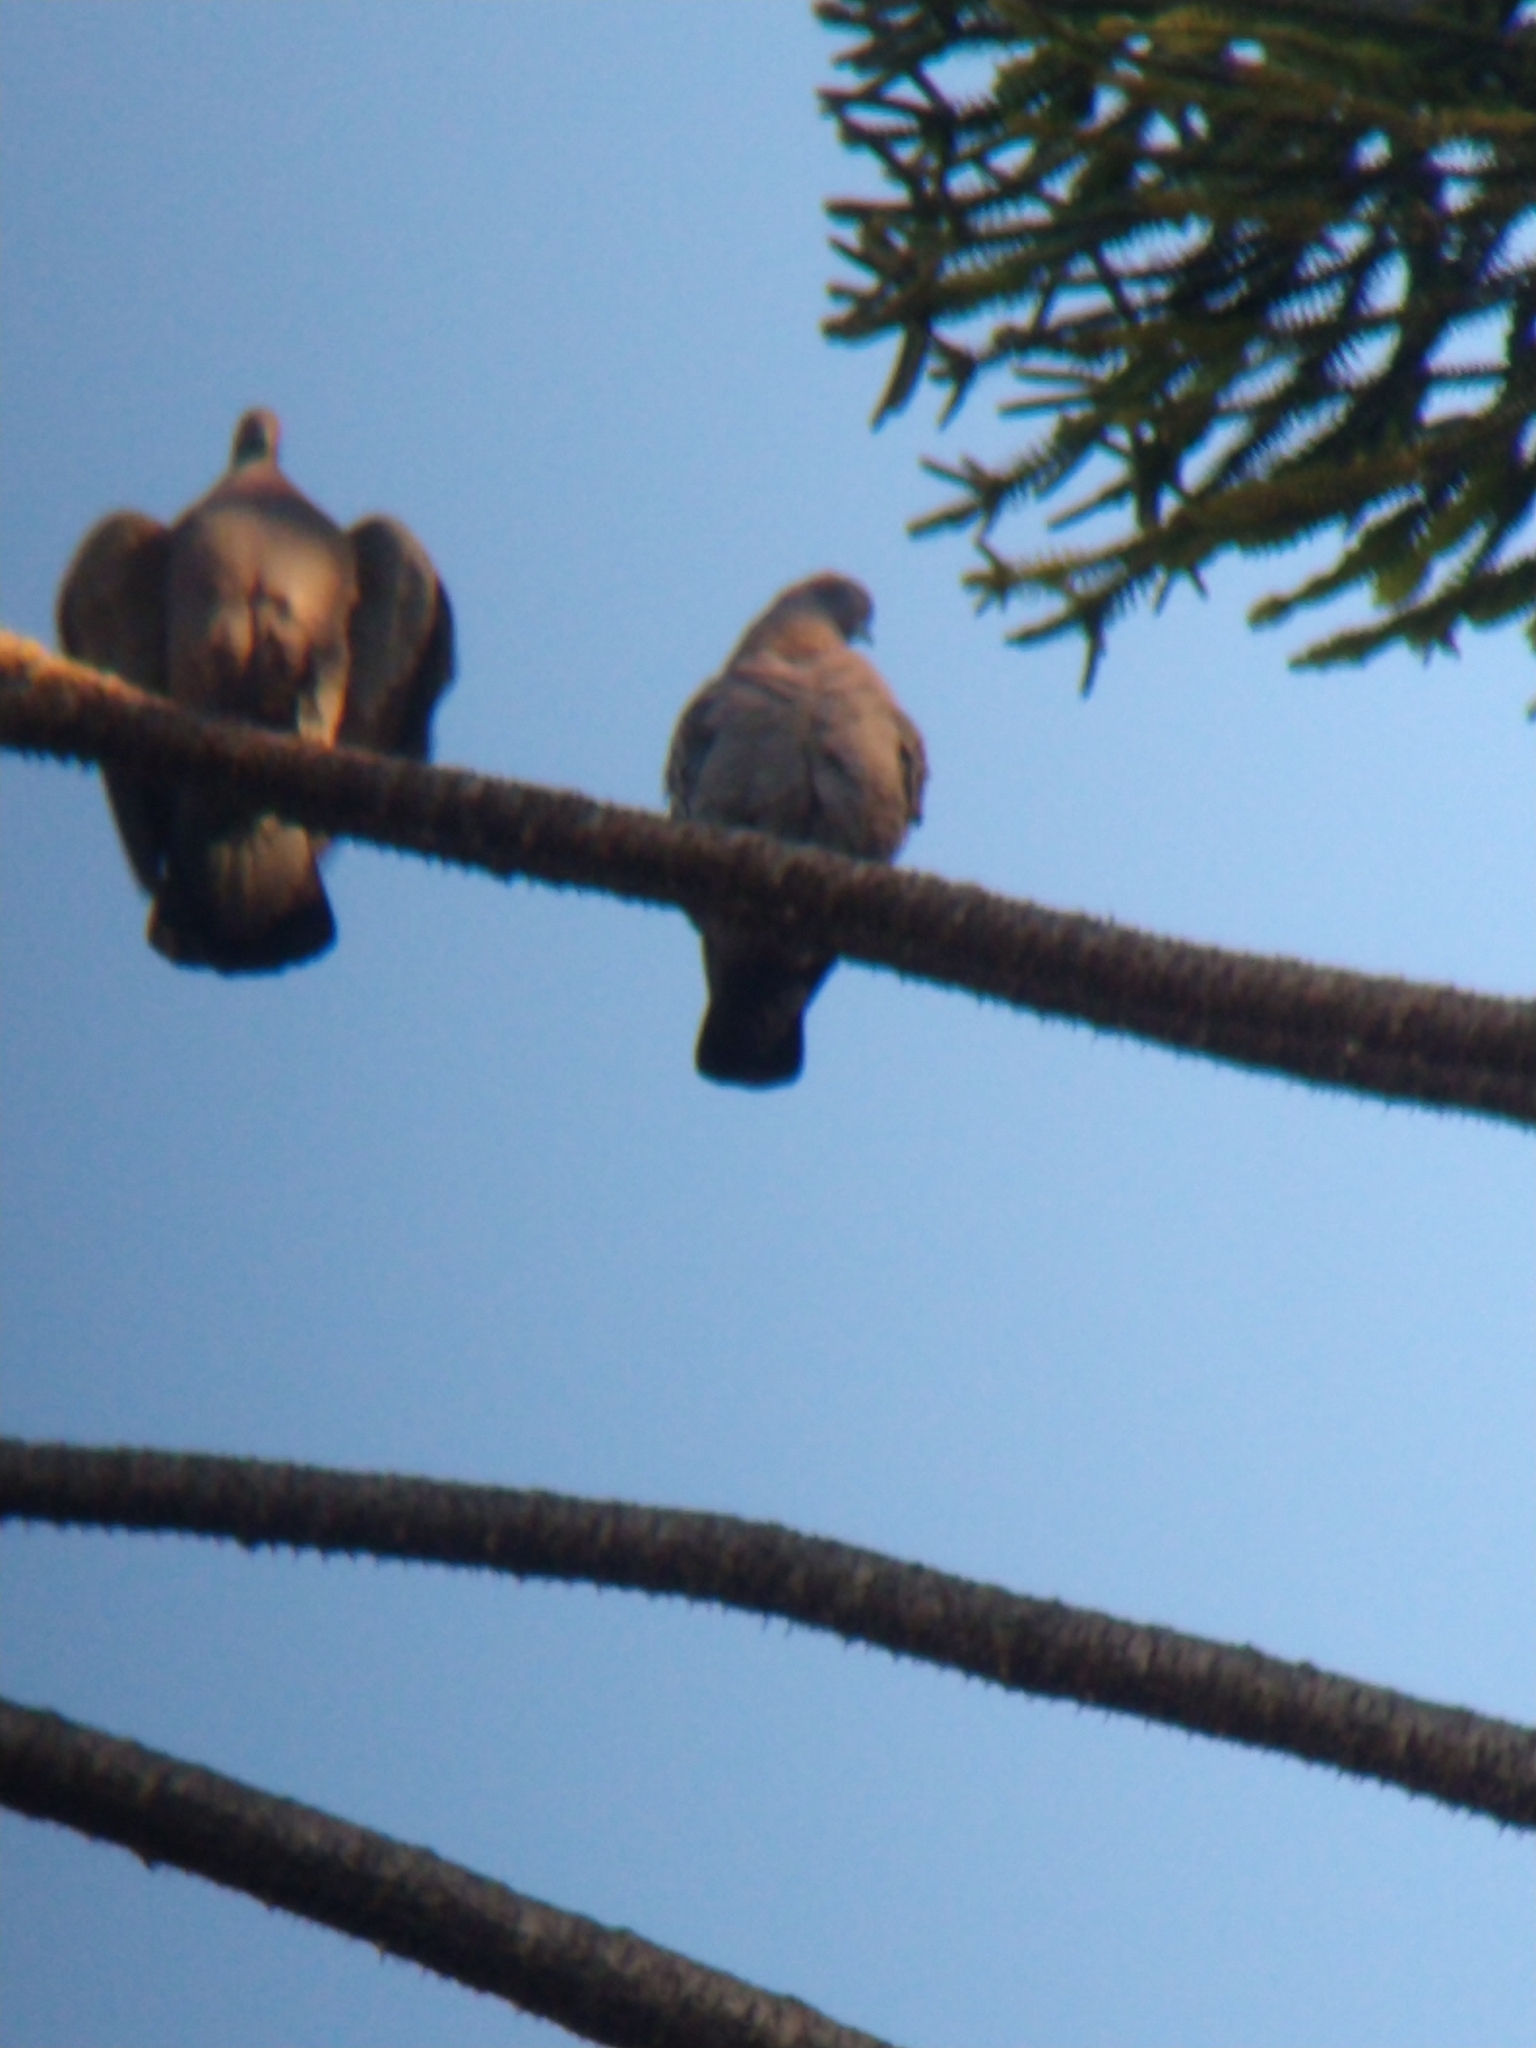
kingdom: Animalia
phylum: Chordata
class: Aves
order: Columbiformes
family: Columbidae
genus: Patagioenas
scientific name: Patagioenas maculosa
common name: Spot-winged pigeon
